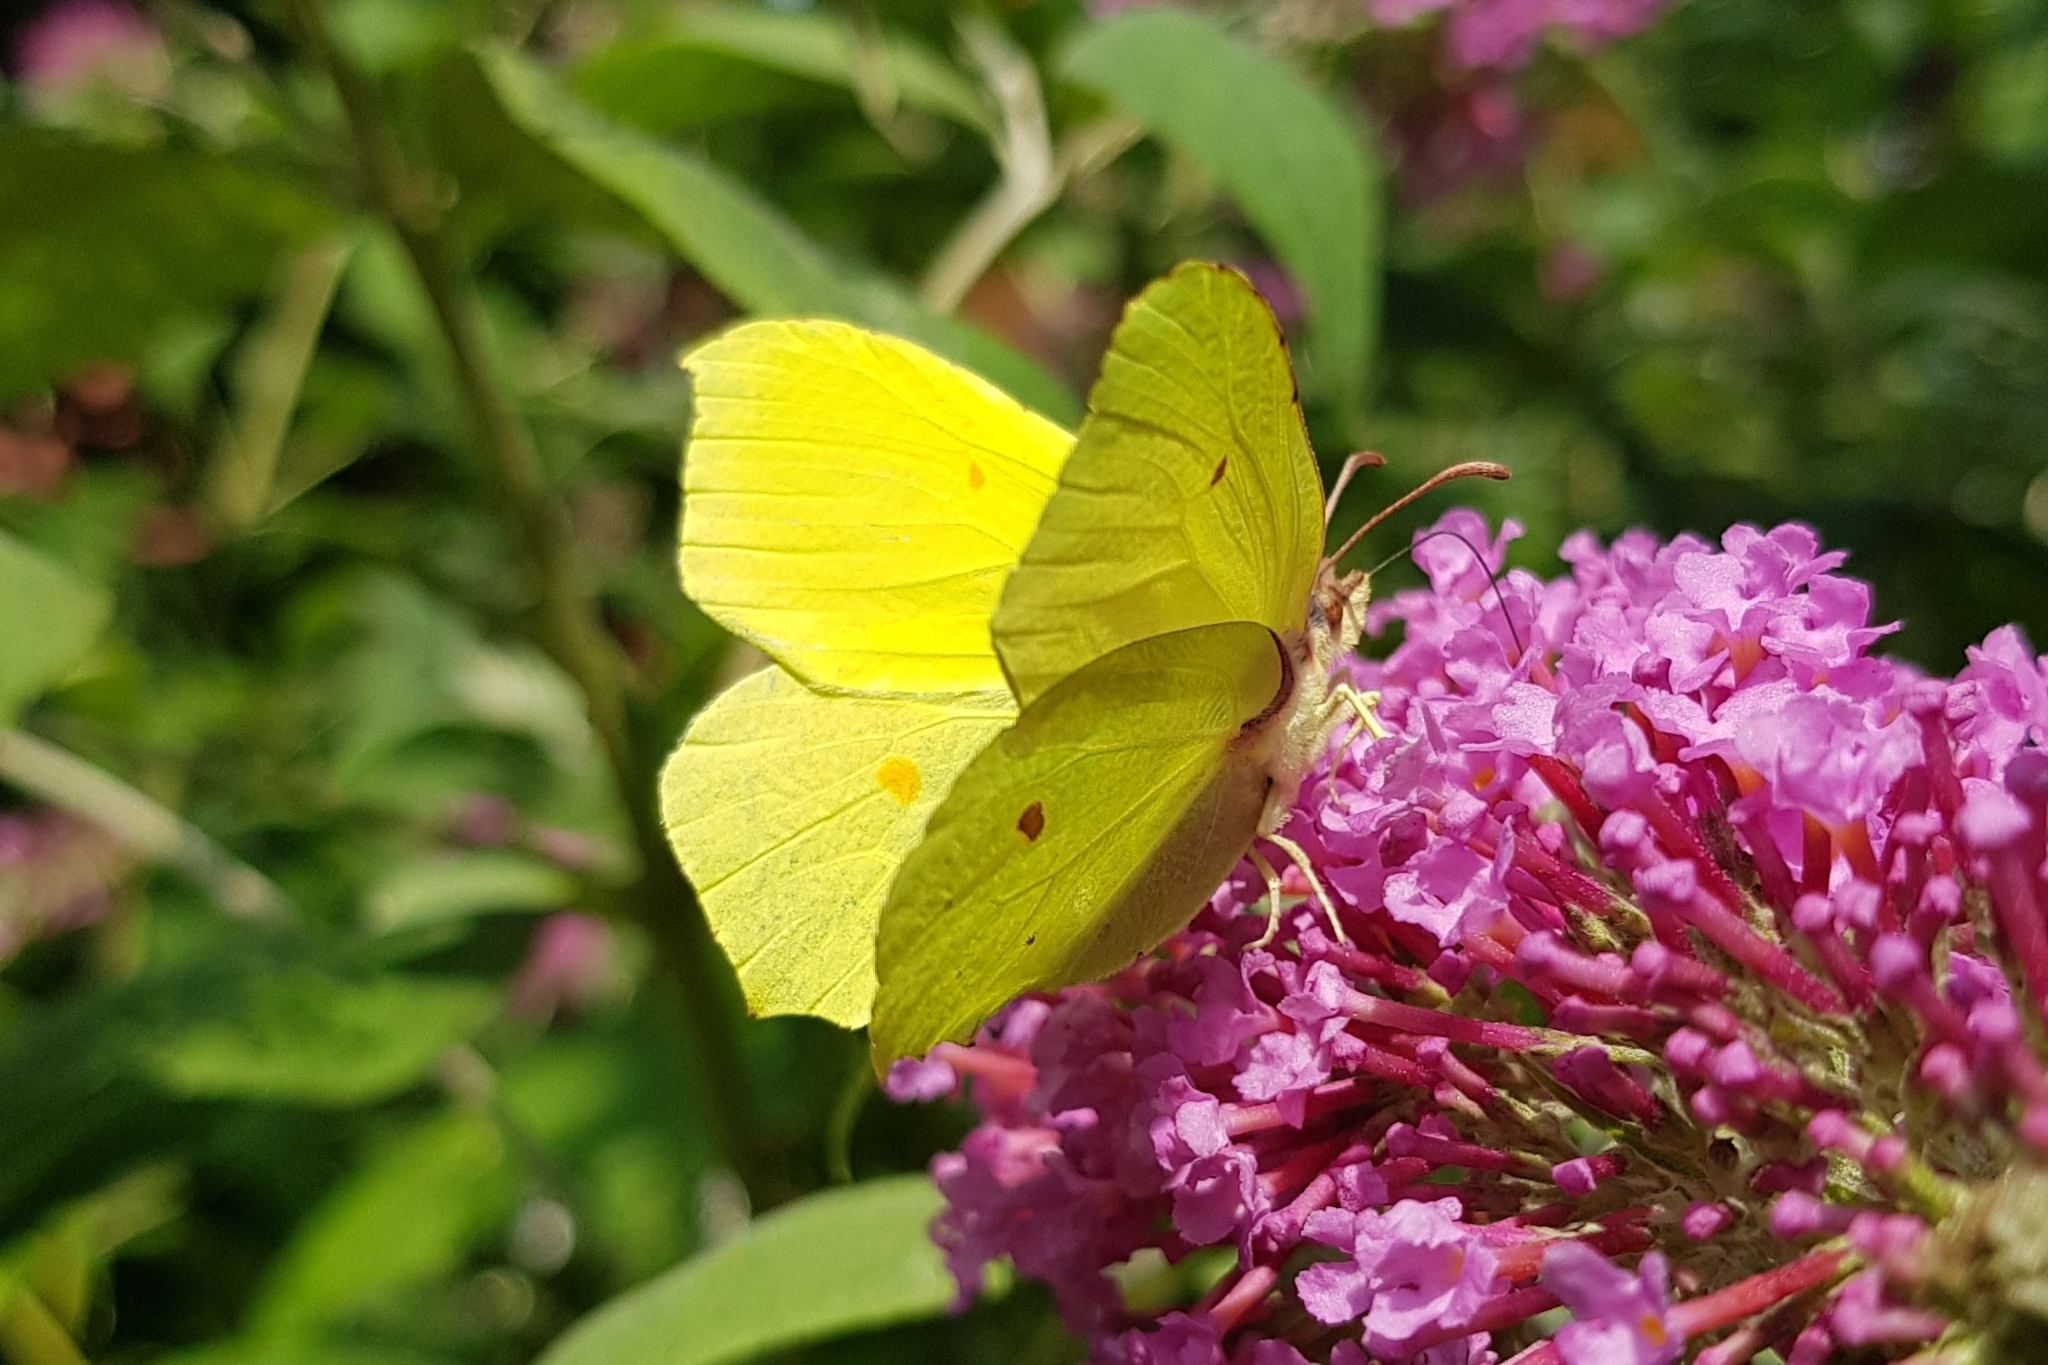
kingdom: Animalia
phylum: Arthropoda
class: Insecta
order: Lepidoptera
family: Pieridae
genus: Gonepteryx
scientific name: Gonepteryx rhamni
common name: Brimstone
